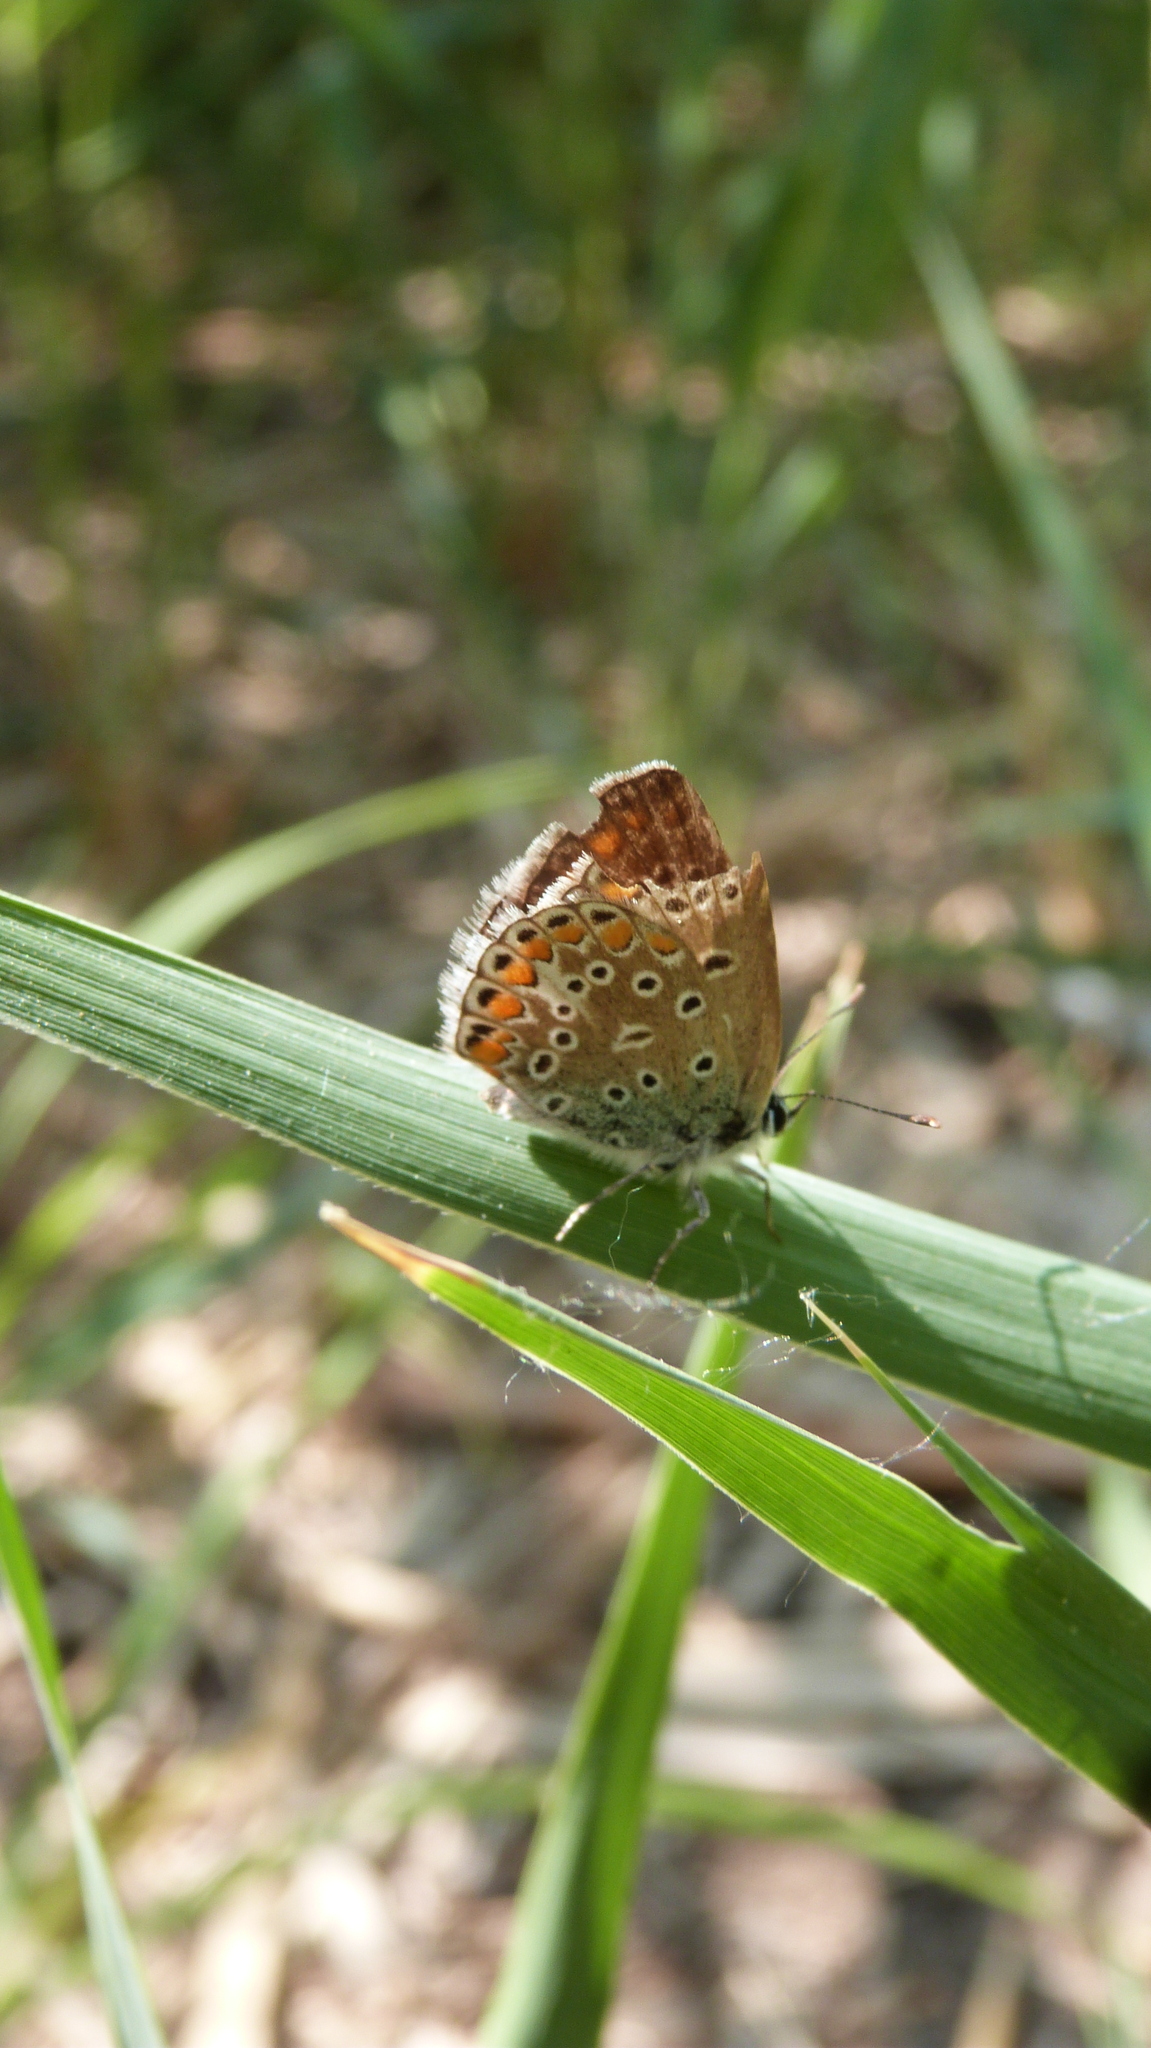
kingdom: Animalia
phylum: Arthropoda
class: Insecta
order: Lepidoptera
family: Lycaenidae
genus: Polyommatus
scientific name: Polyommatus icarus
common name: Common blue
